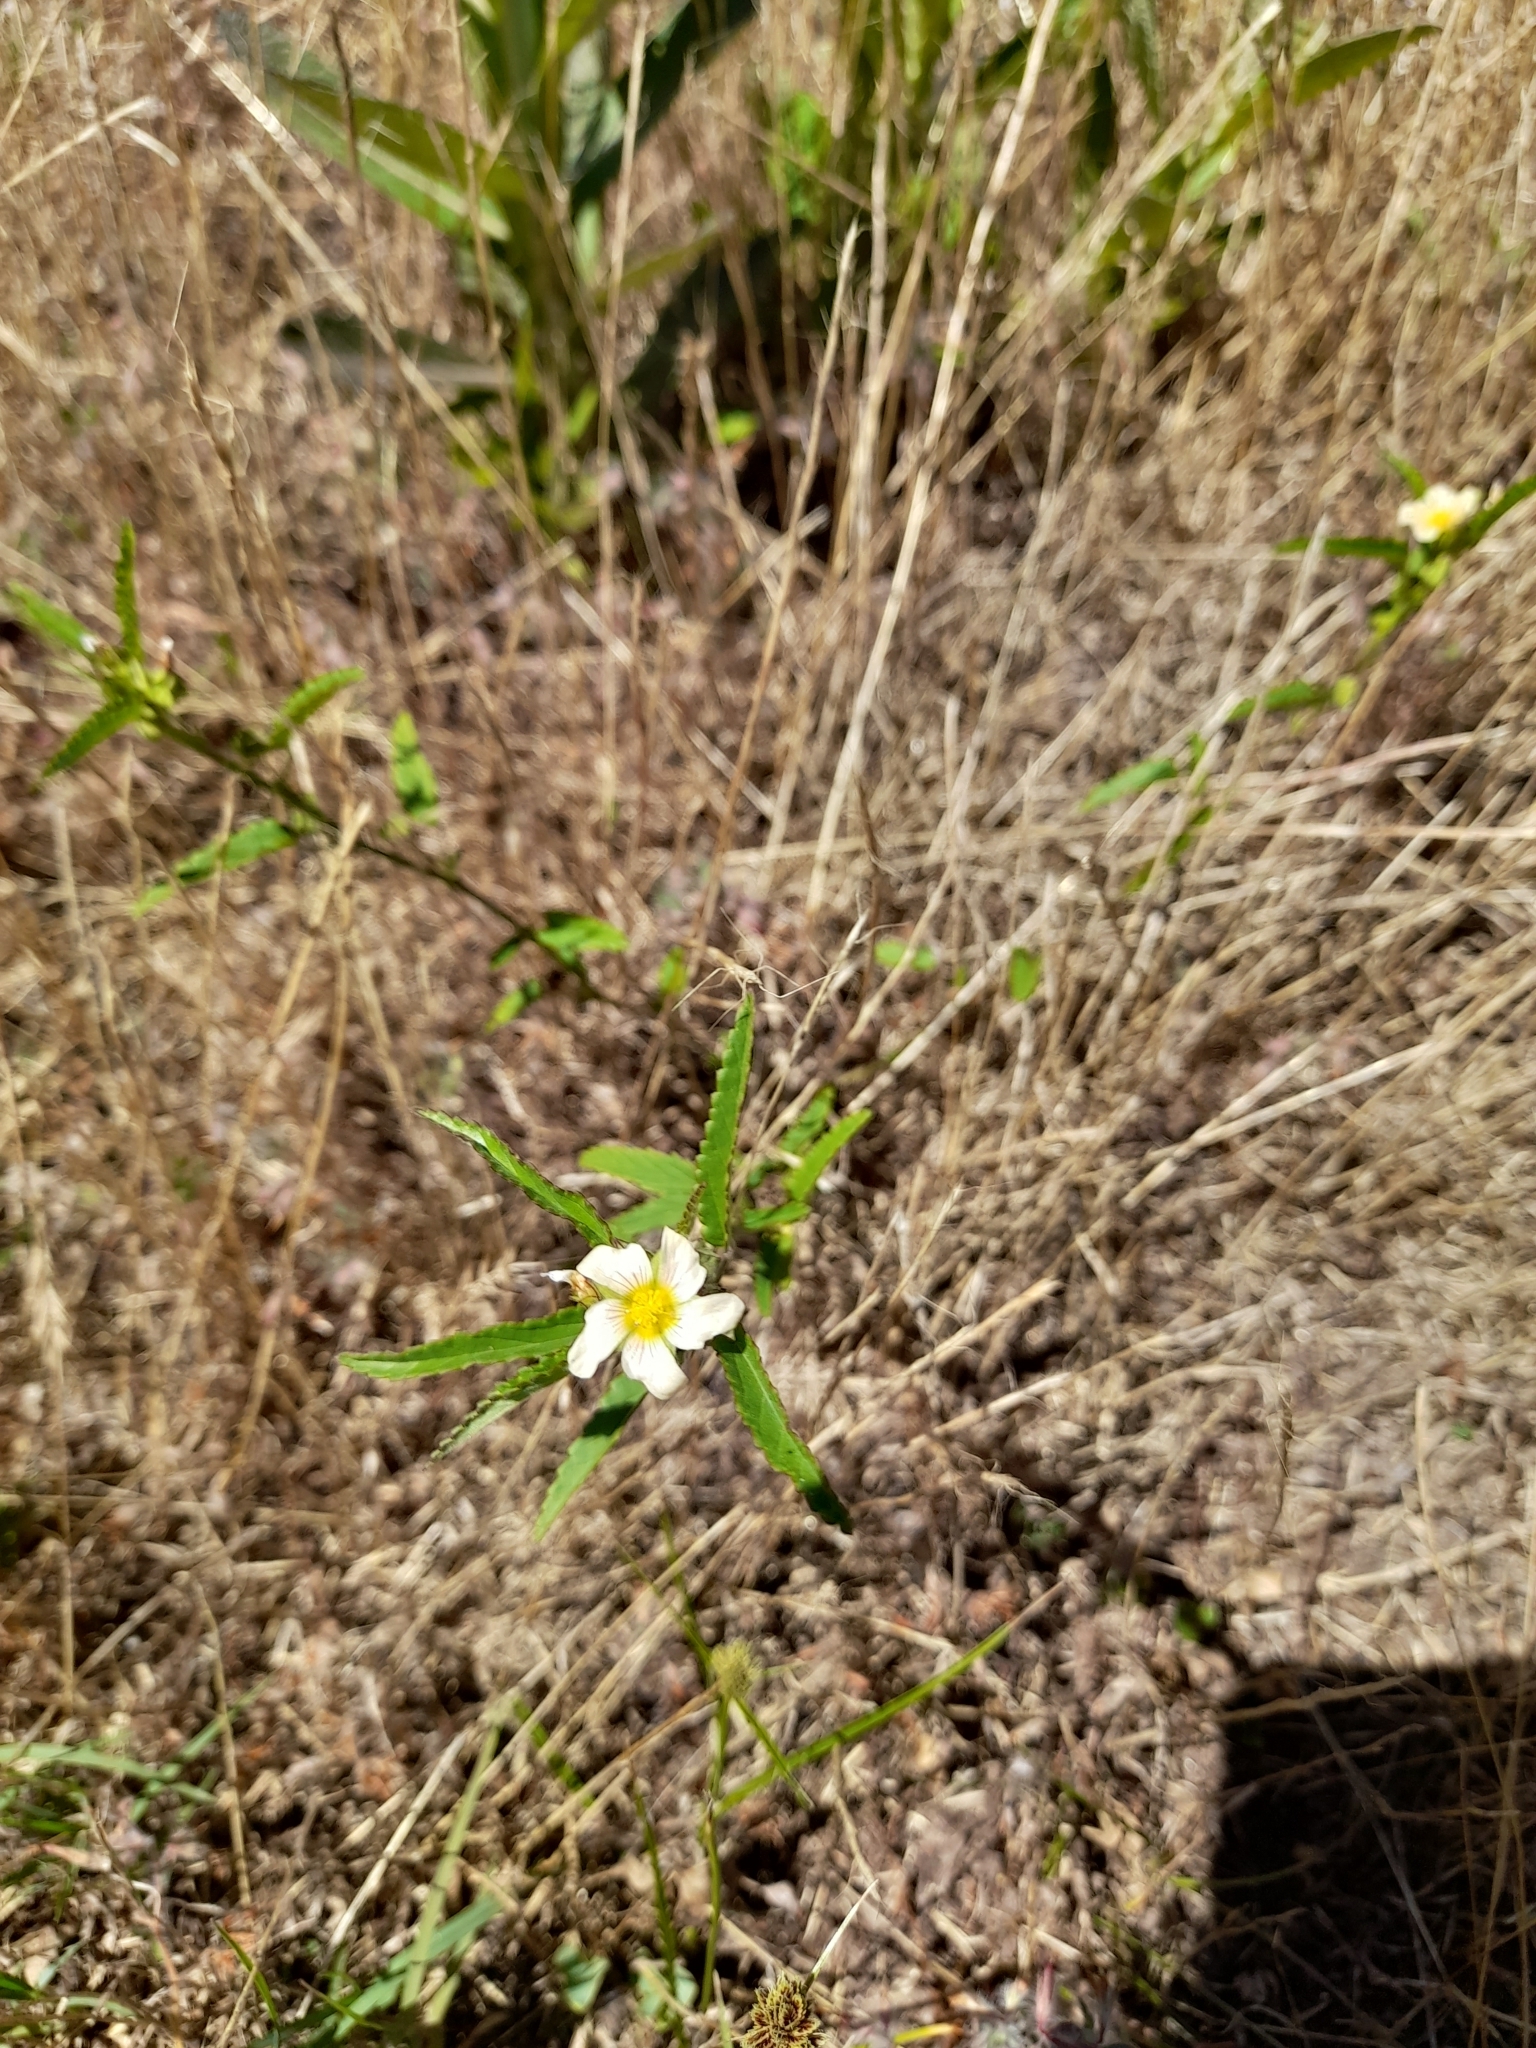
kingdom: Plantae
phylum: Tracheophyta
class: Magnoliopsida
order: Malvales
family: Malvaceae
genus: Sida
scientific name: Sida spinosa
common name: Prickly fanpetals
